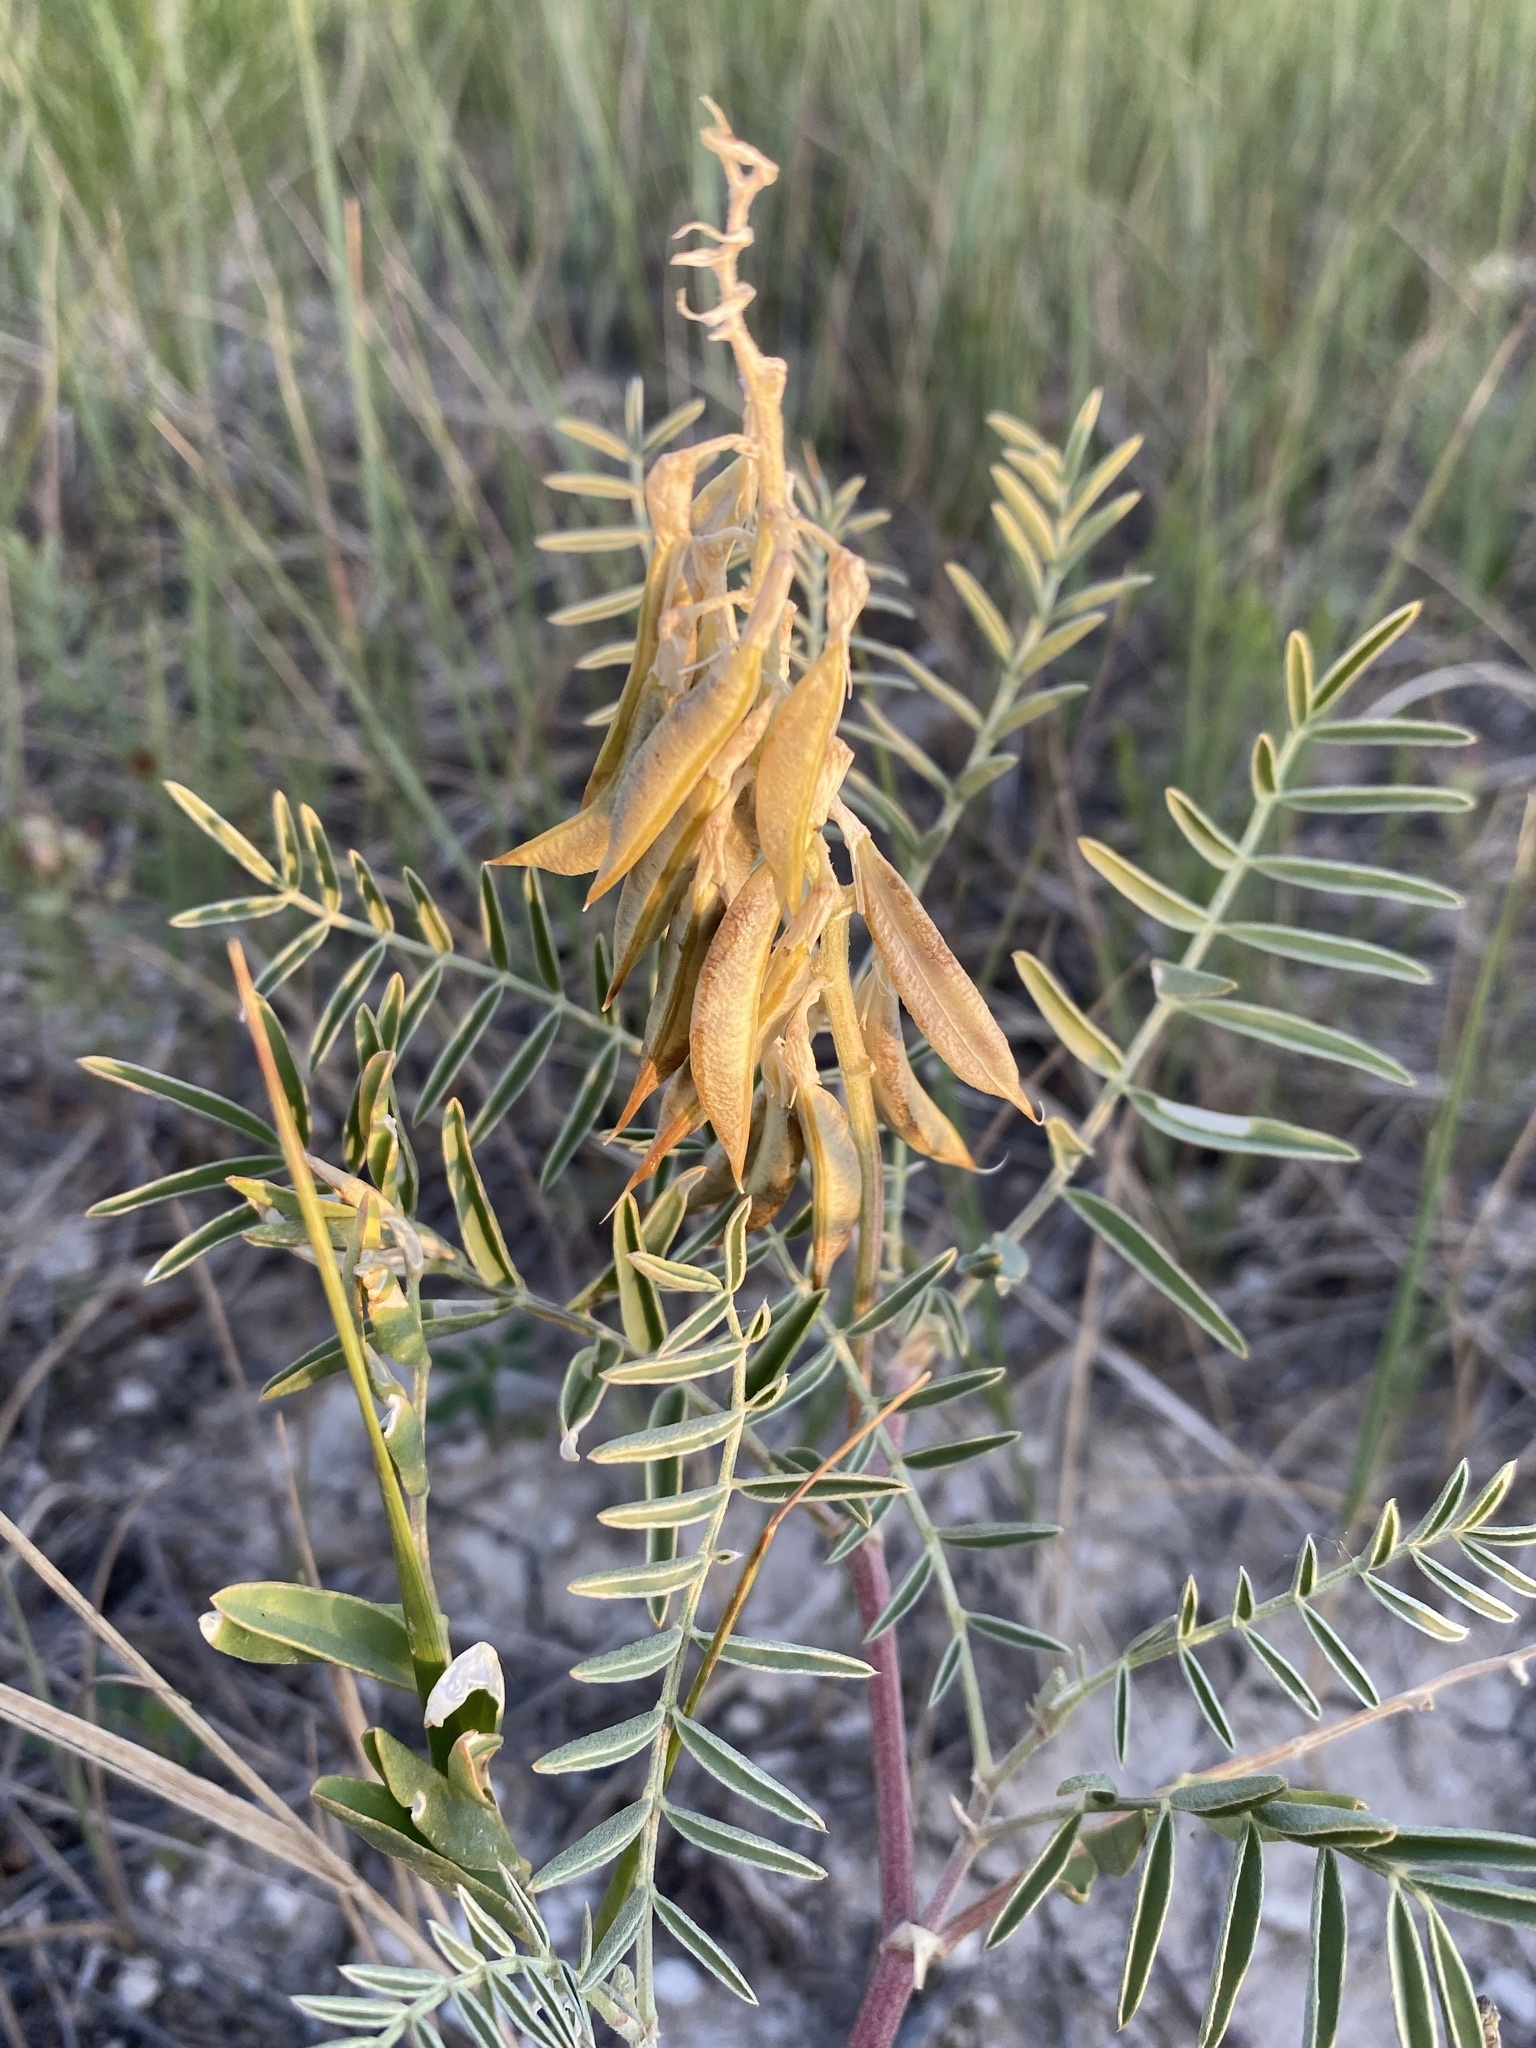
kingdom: Plantae
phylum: Tracheophyta
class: Magnoliopsida
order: Fabales
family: Fabaceae
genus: Astragalus
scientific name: Astragalus racemosus
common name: Alkali milk-vetch
